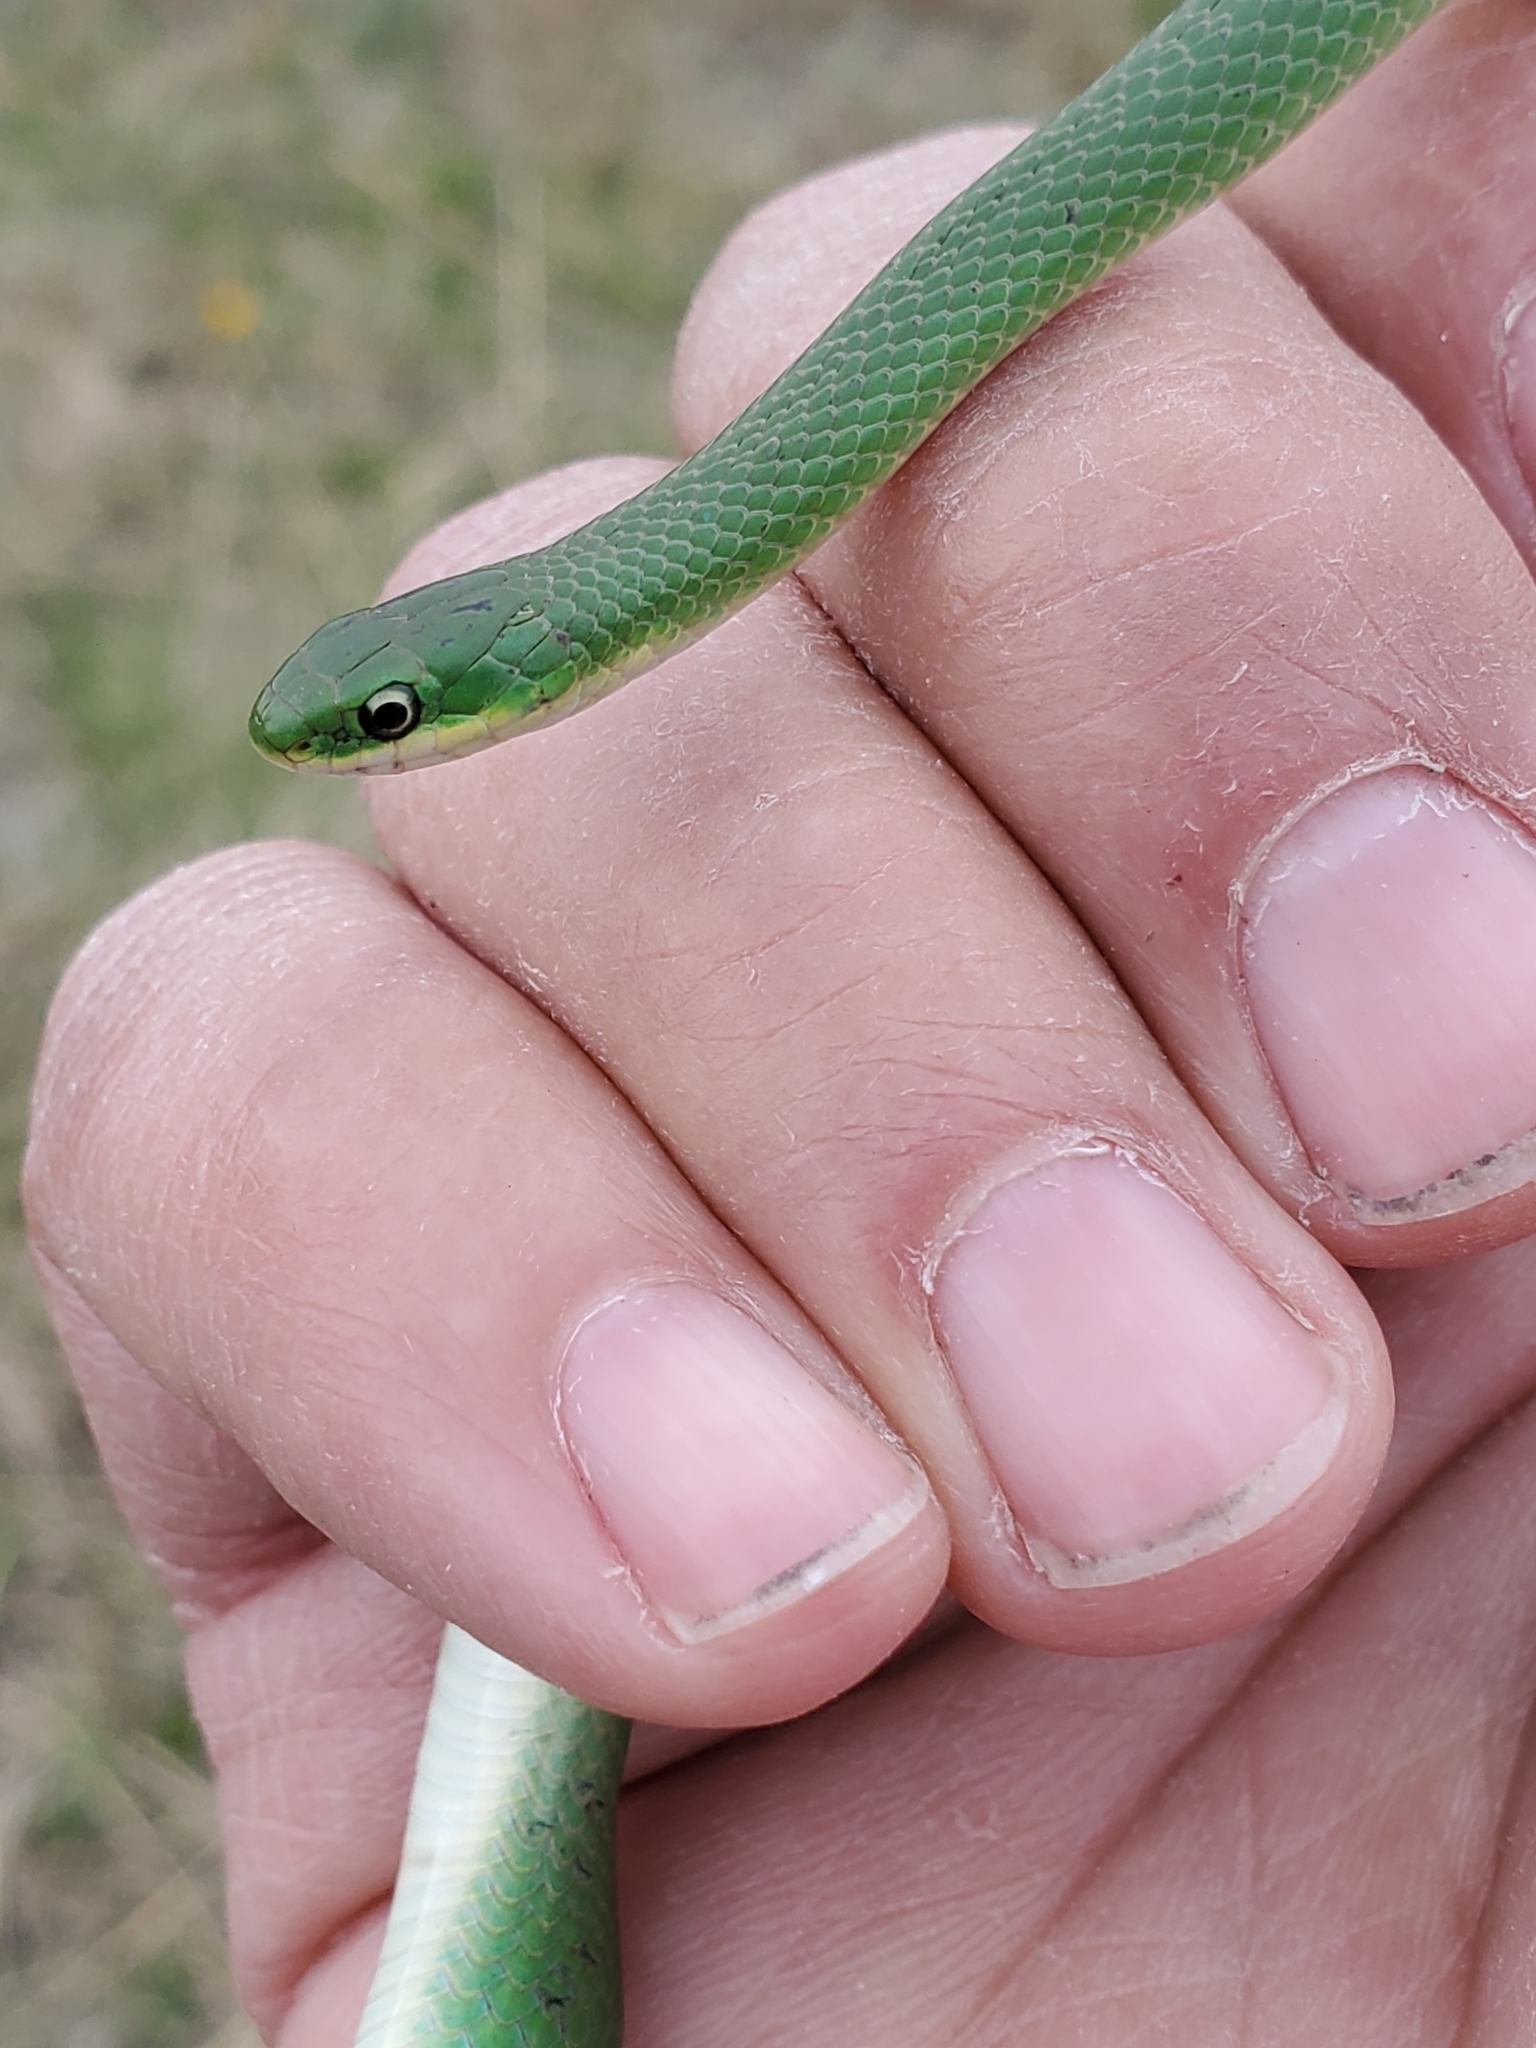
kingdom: Animalia
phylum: Chordata
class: Squamata
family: Colubridae
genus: Opheodrys
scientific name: Opheodrys vernalis
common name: Smooth green snake
